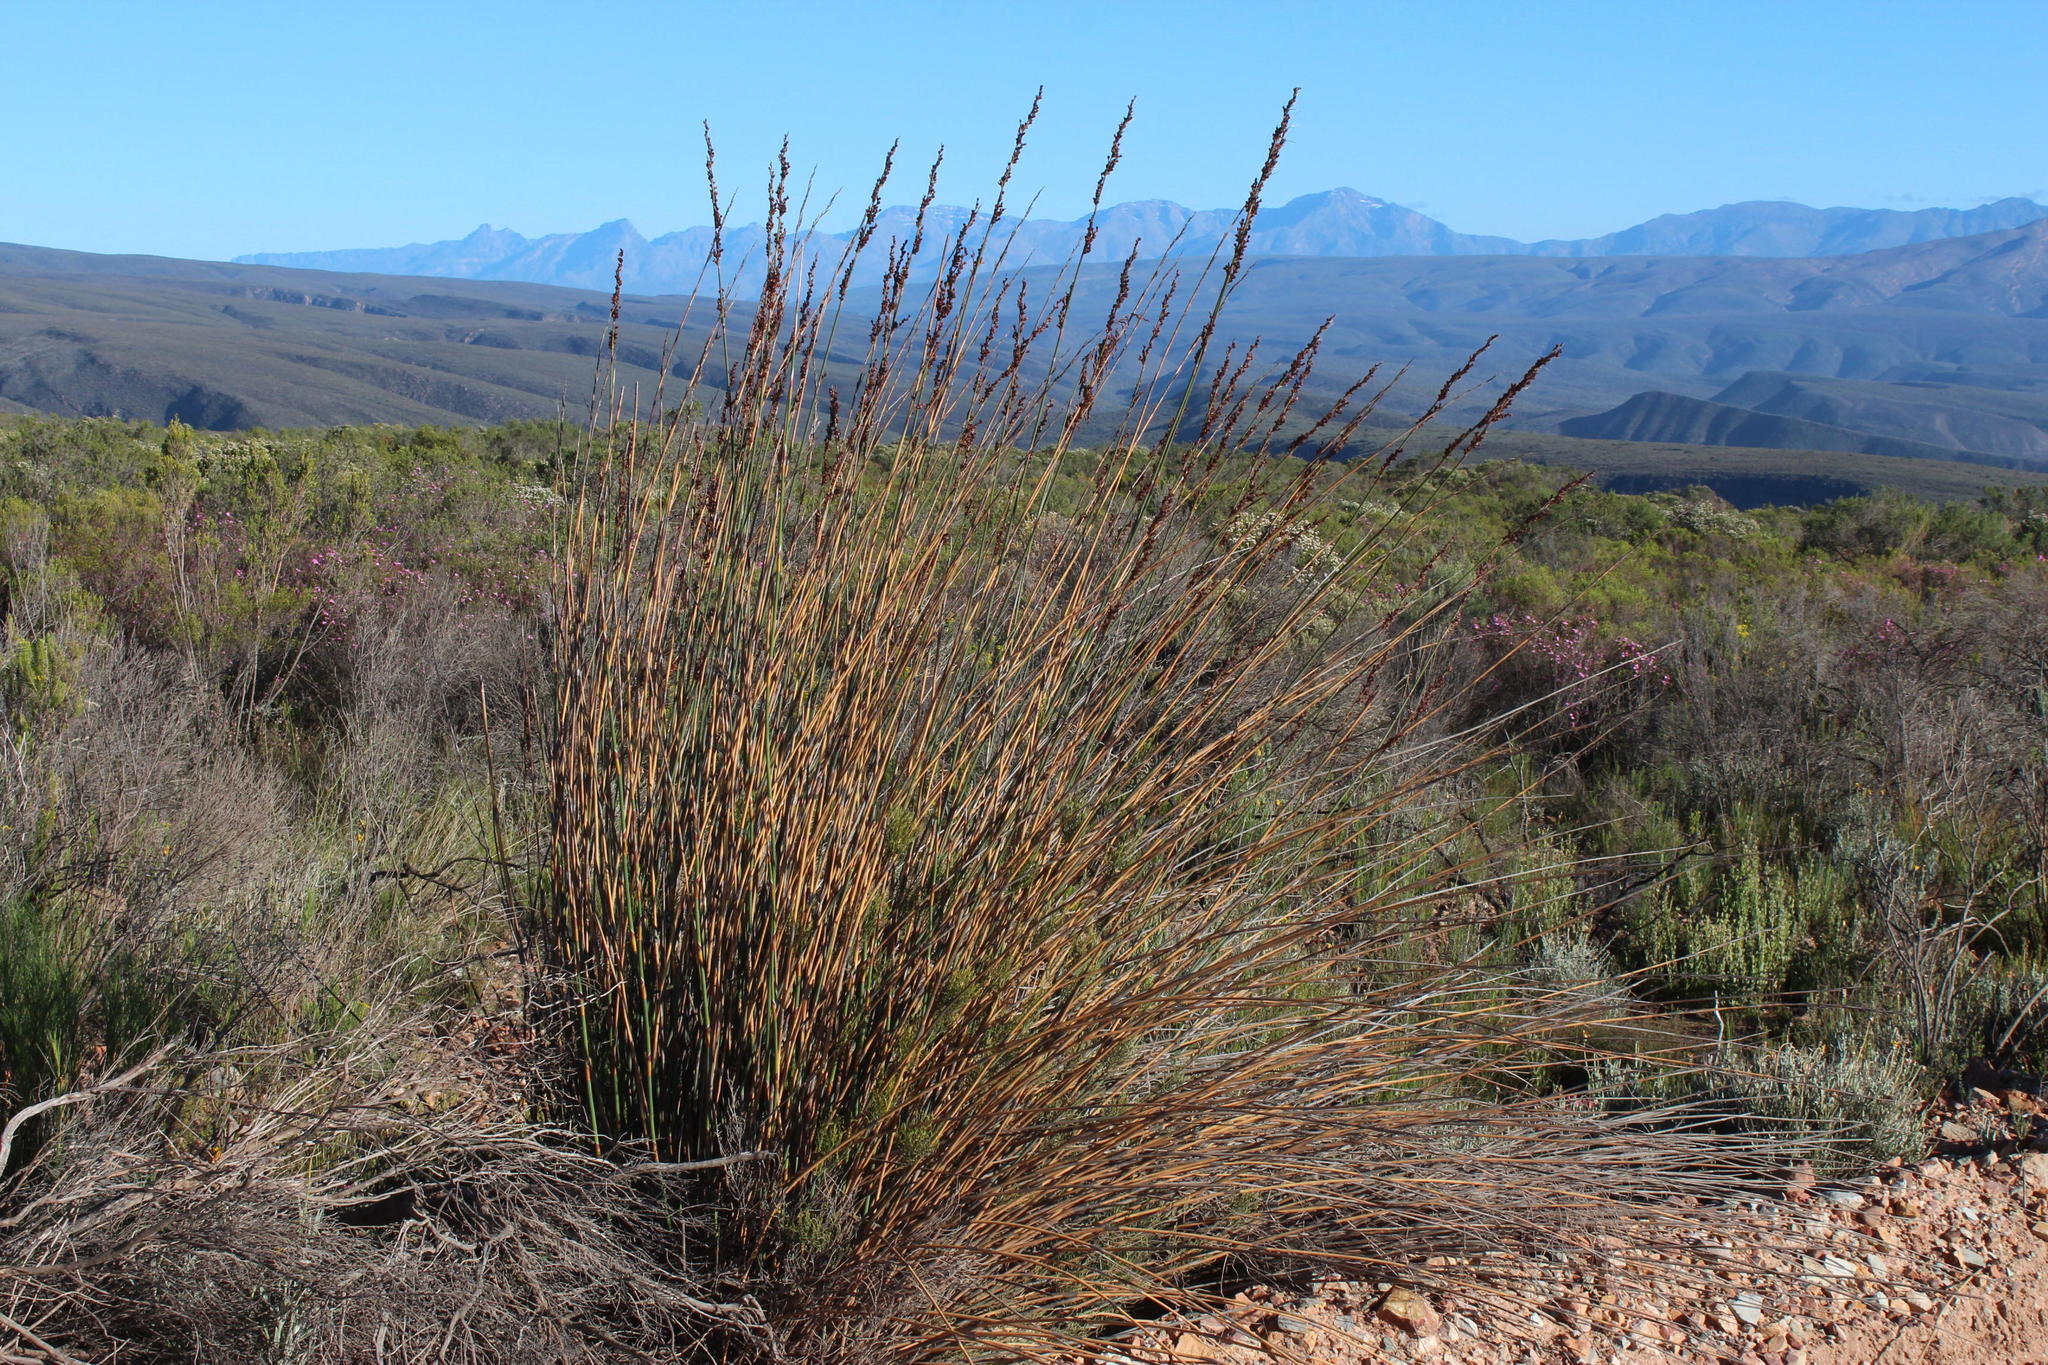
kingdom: Plantae
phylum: Tracheophyta
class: Liliopsida
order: Poales
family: Restionaceae
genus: Rhodocoma
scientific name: Rhodocoma arida
